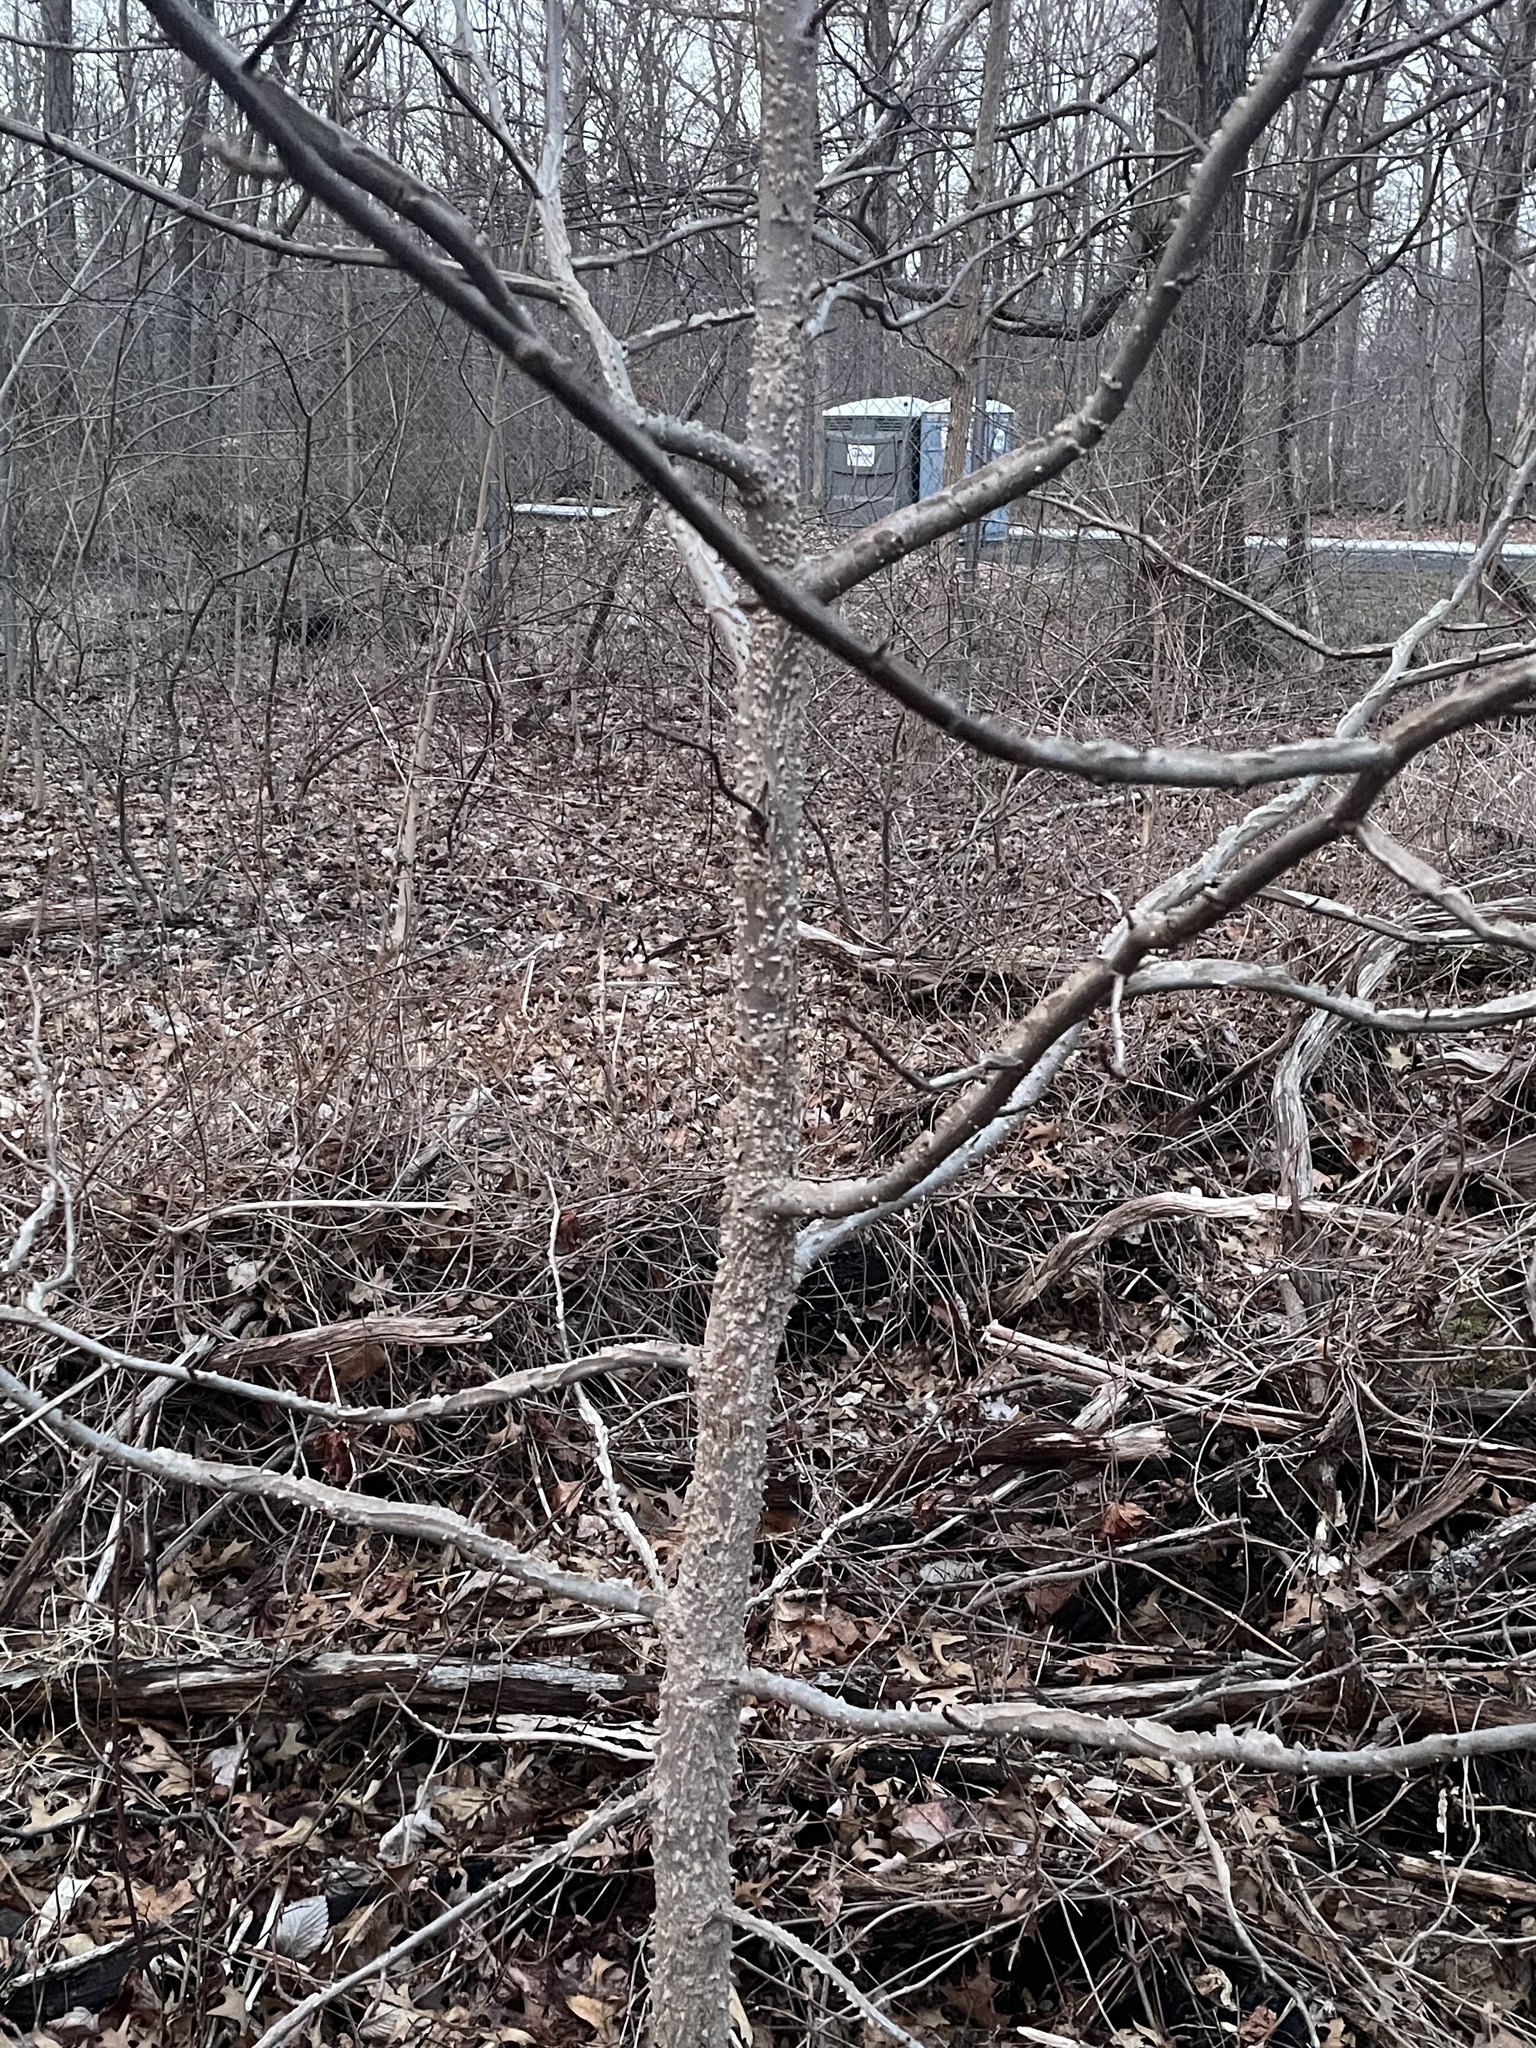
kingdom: Plantae
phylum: Tracheophyta
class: Magnoliopsida
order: Saxifragales
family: Altingiaceae
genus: Liquidambar
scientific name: Liquidambar styraciflua
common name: Sweet gum
